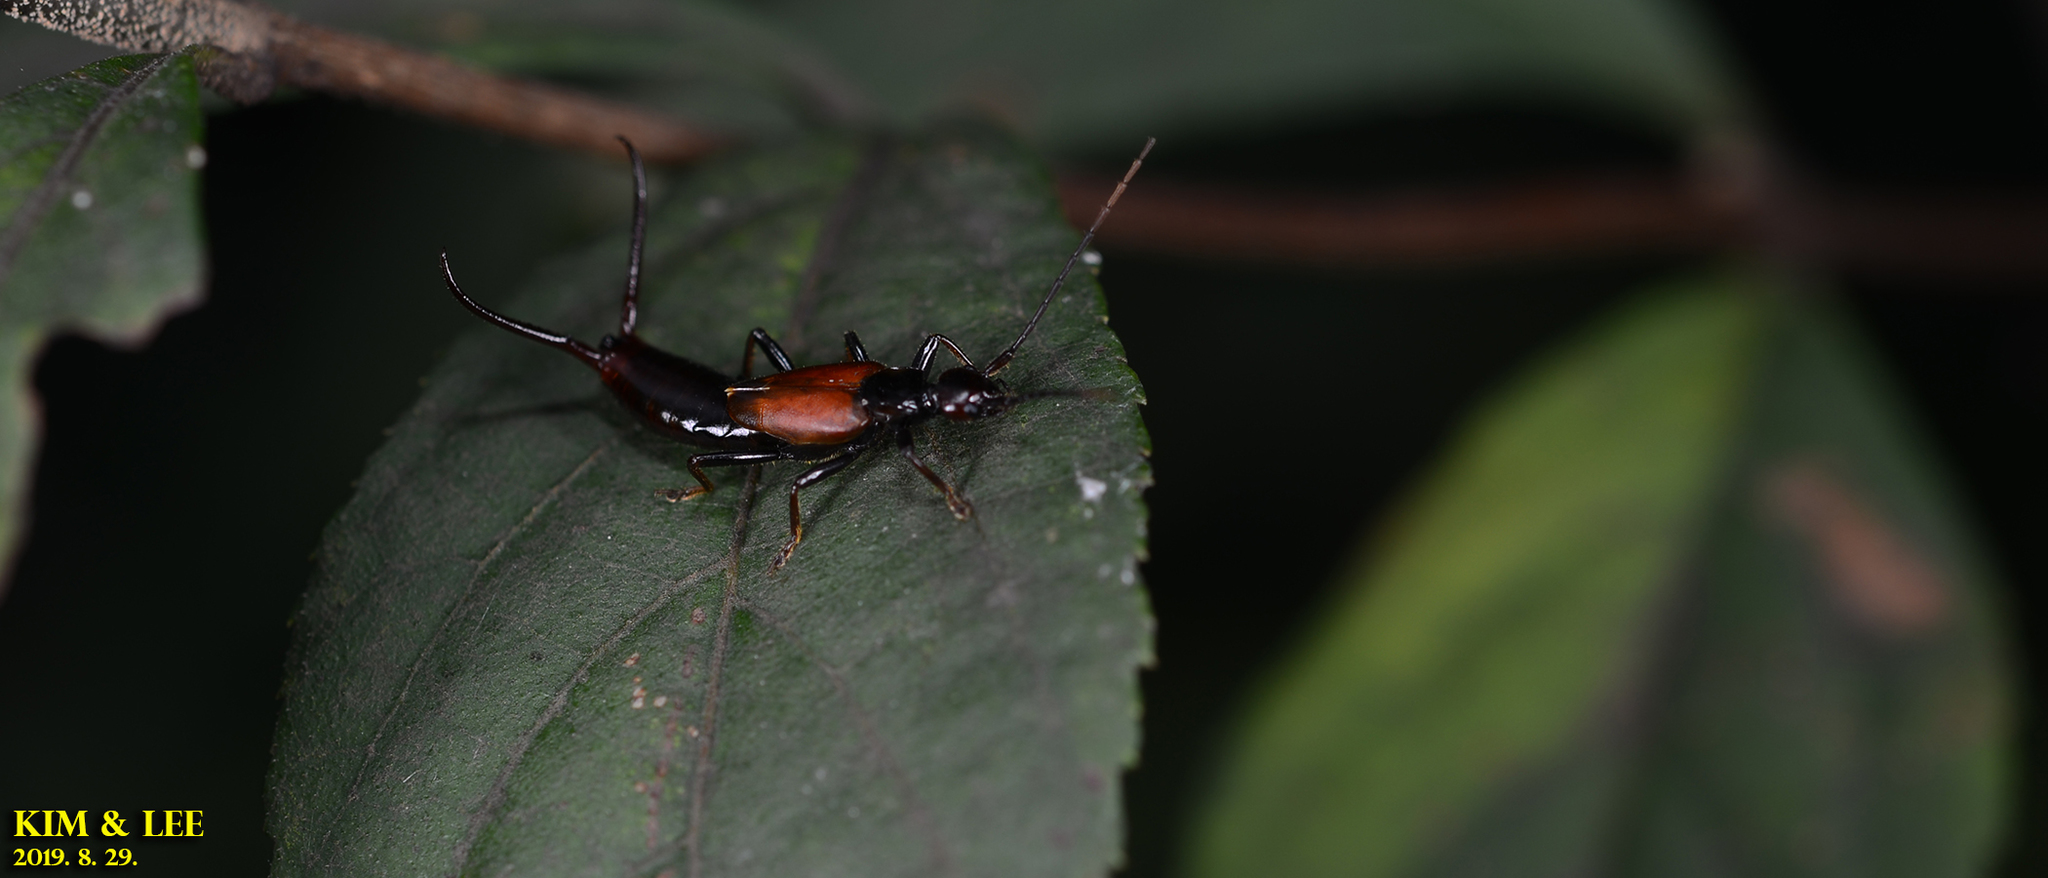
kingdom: Animalia
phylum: Arthropoda
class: Insecta
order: Dermaptera
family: Forficulidae
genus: Timomenus
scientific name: Timomenus komarovi
